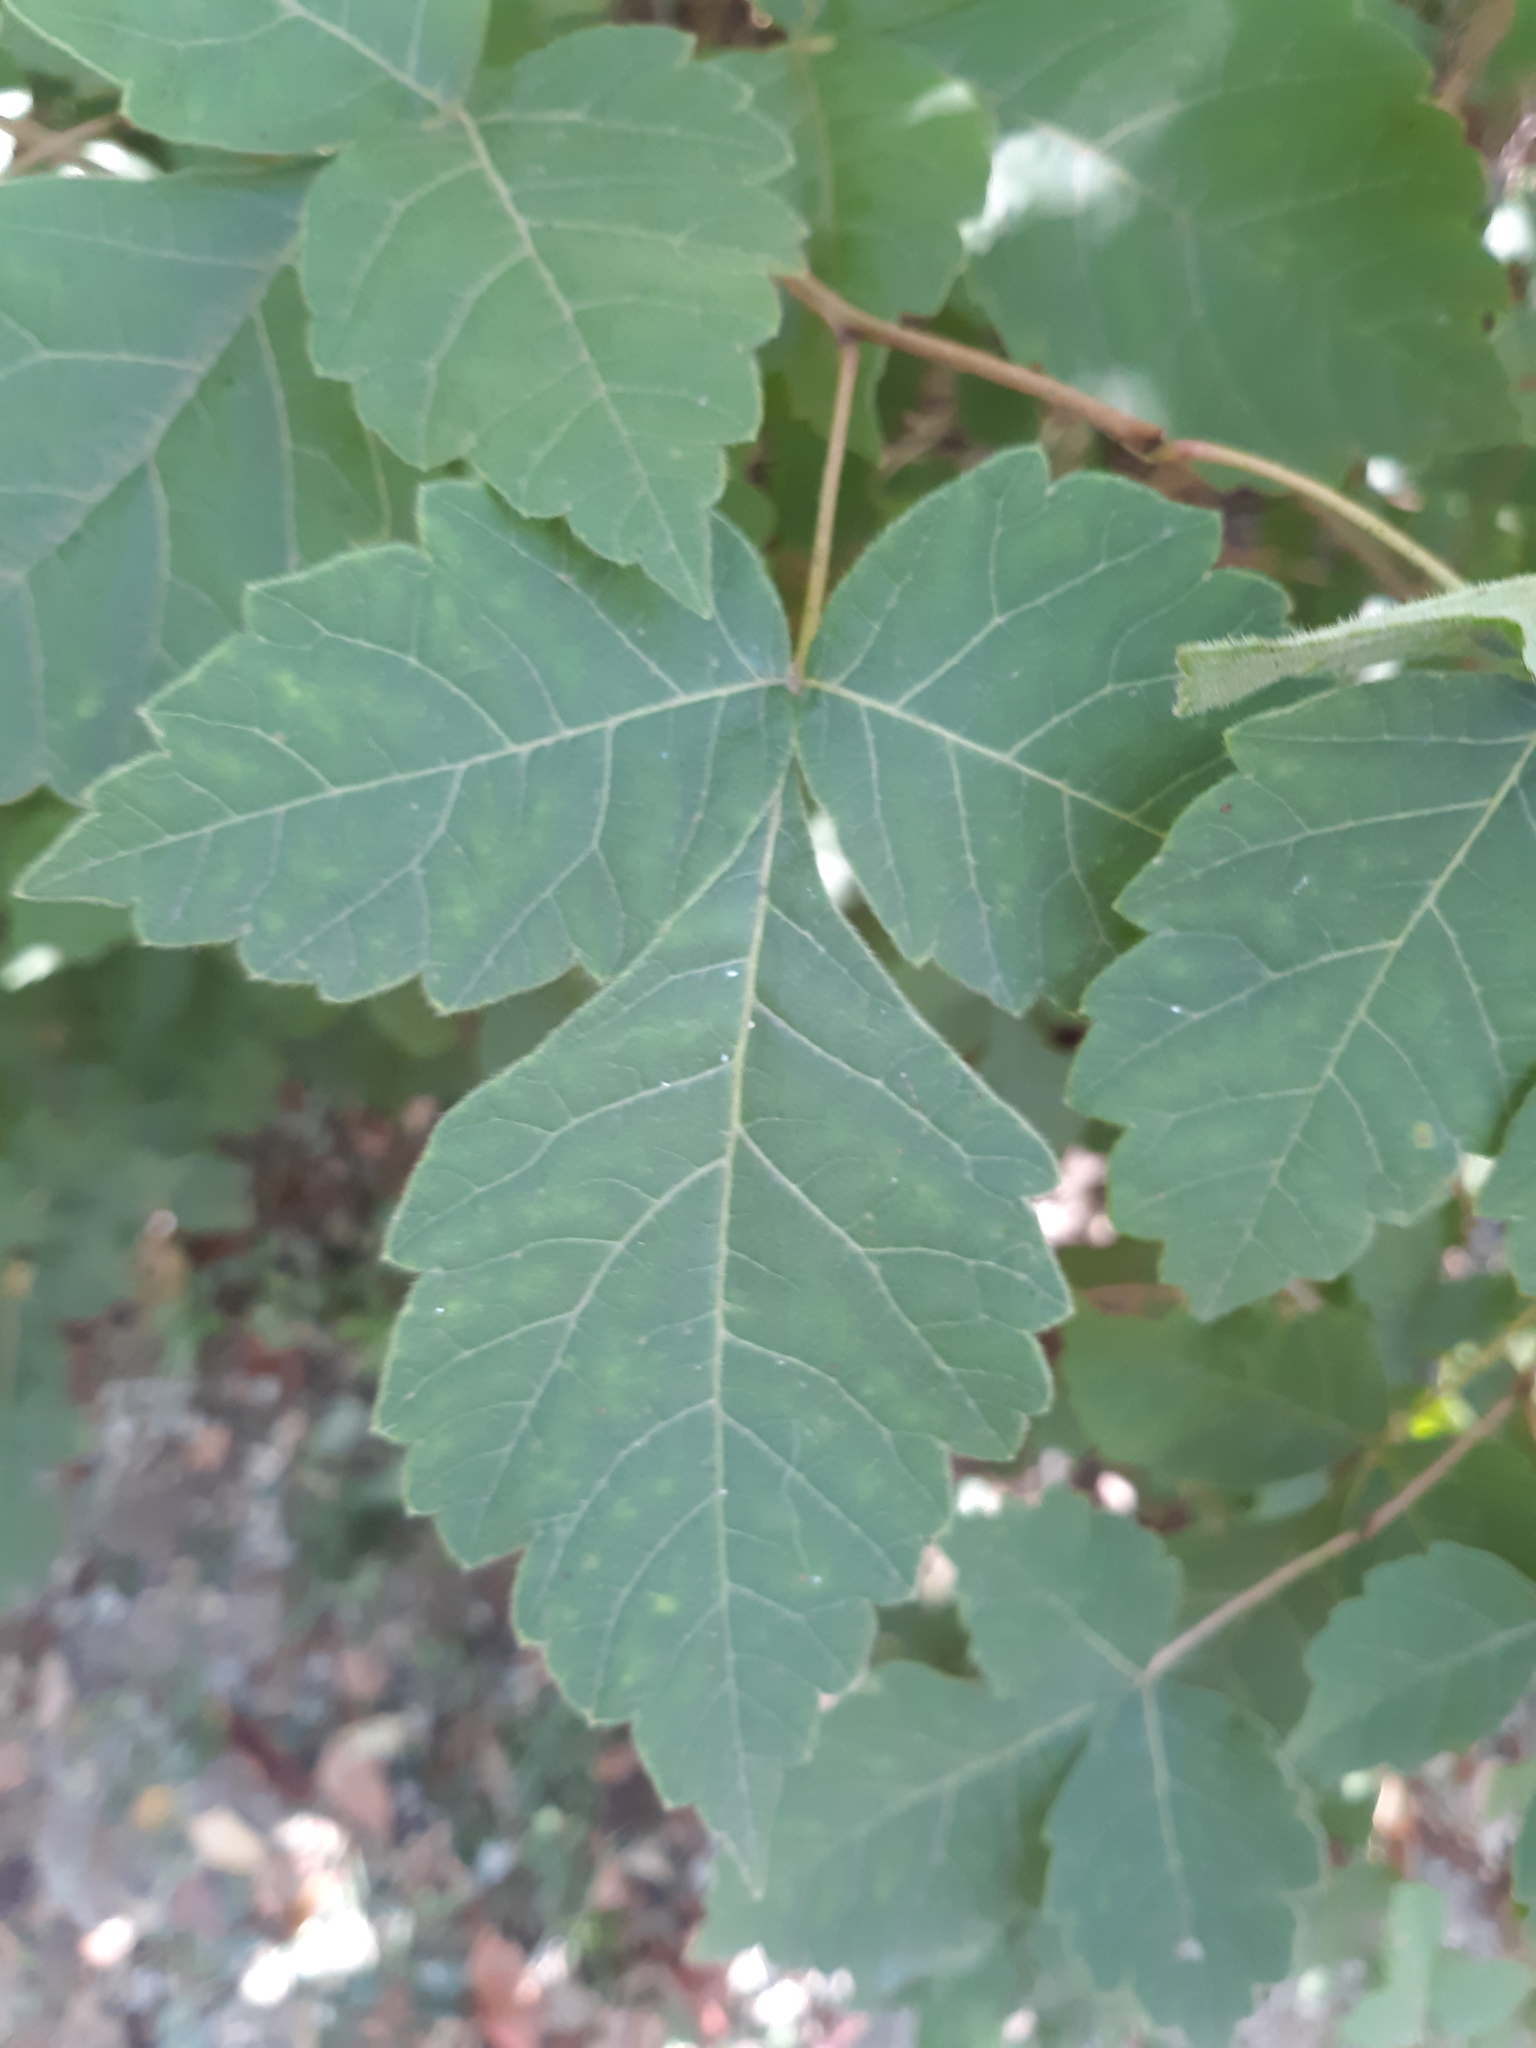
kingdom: Plantae
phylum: Tracheophyta
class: Magnoliopsida
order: Sapindales
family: Anacardiaceae
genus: Rhus
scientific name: Rhus aromatica
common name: Aromatic sumac
